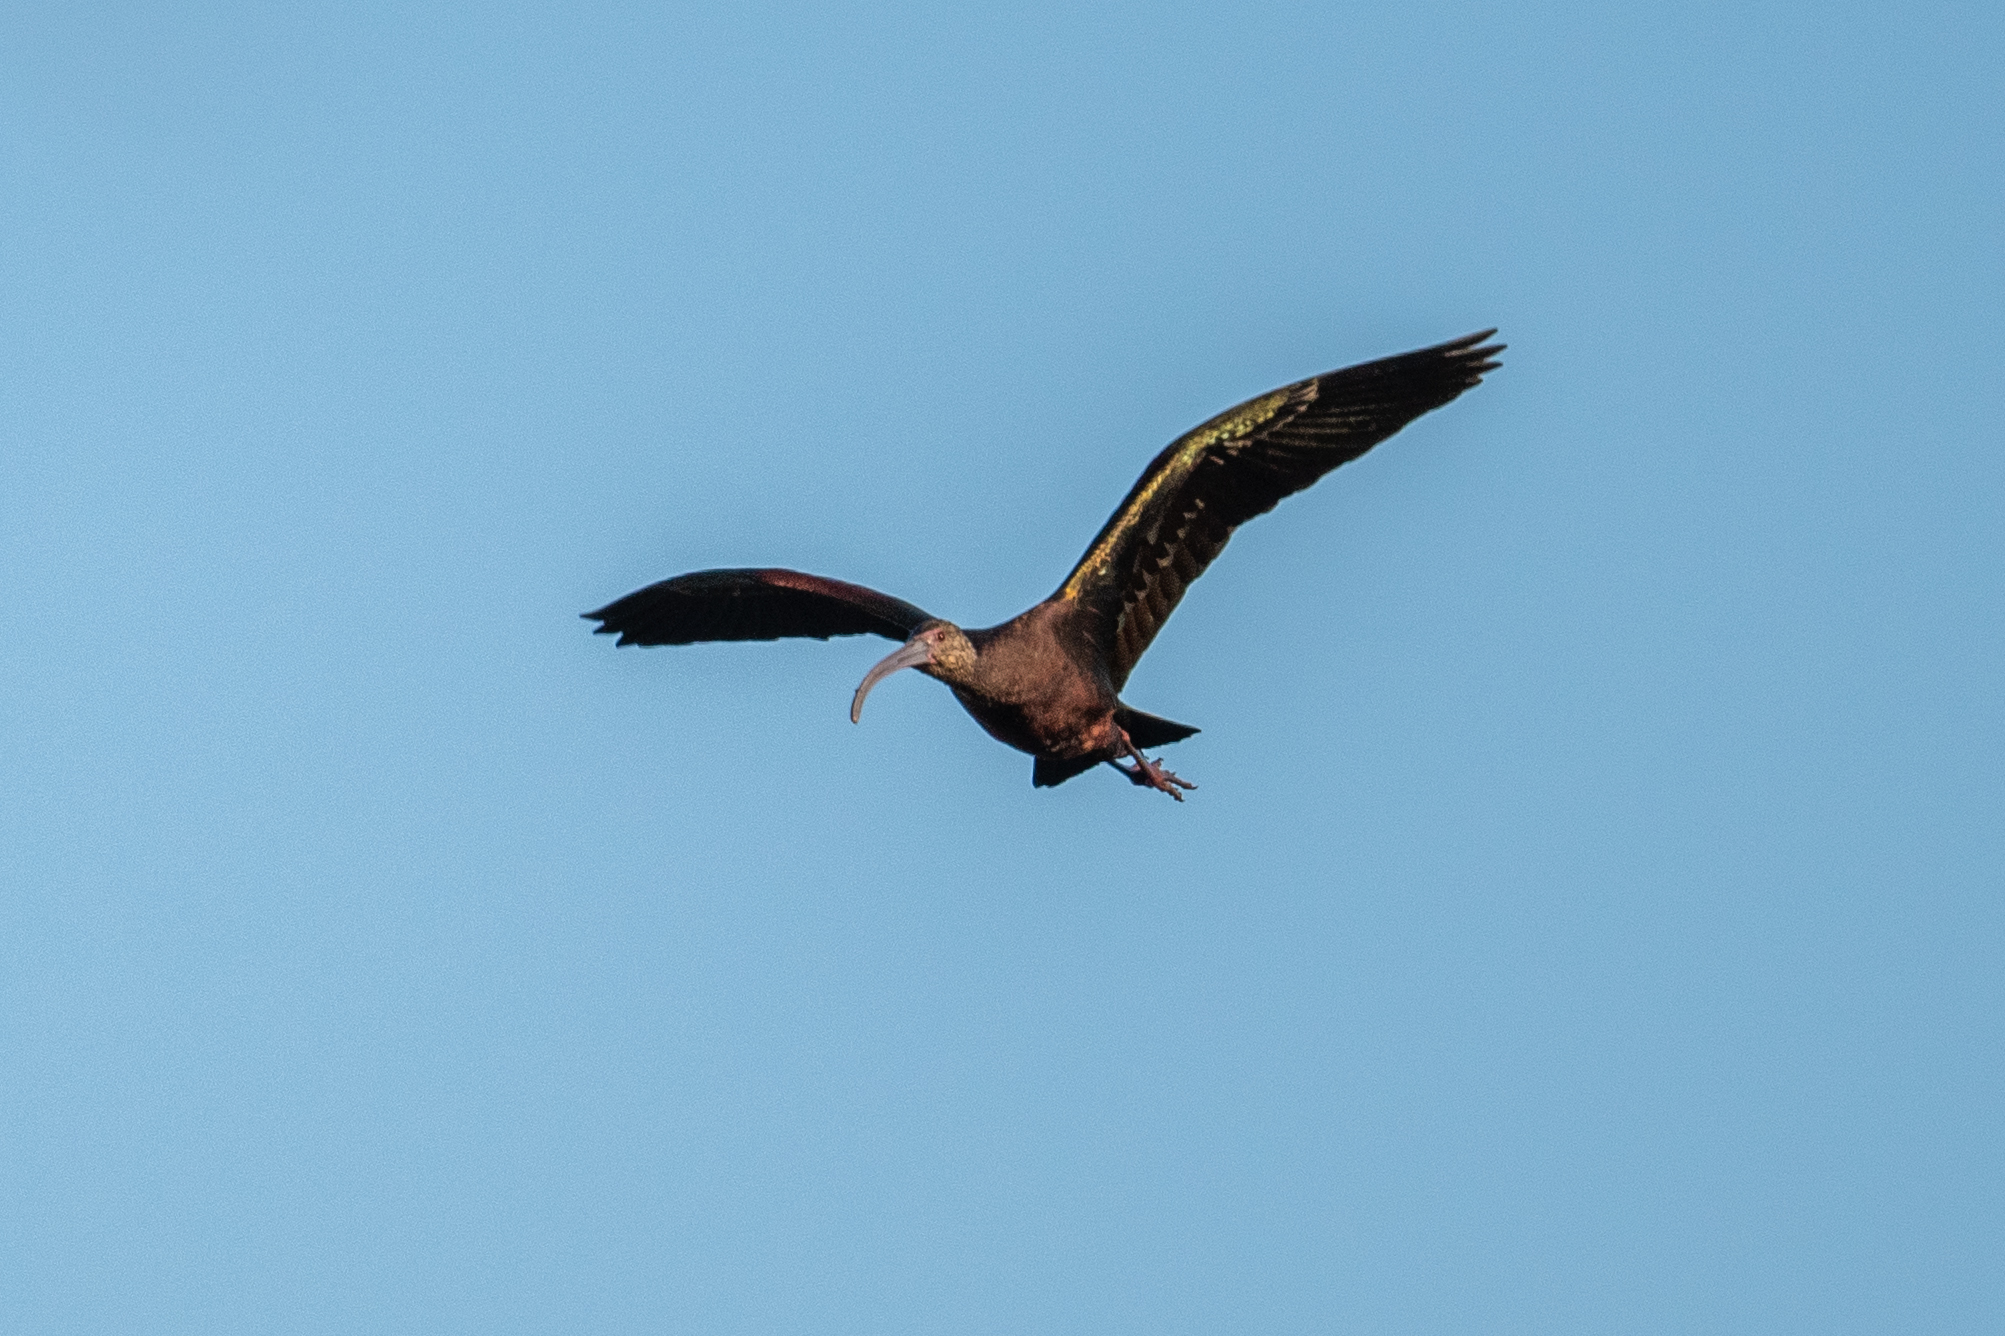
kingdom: Animalia
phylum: Chordata
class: Aves
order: Pelecaniformes
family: Threskiornithidae
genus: Plegadis
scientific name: Plegadis chihi
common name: White-faced ibis
